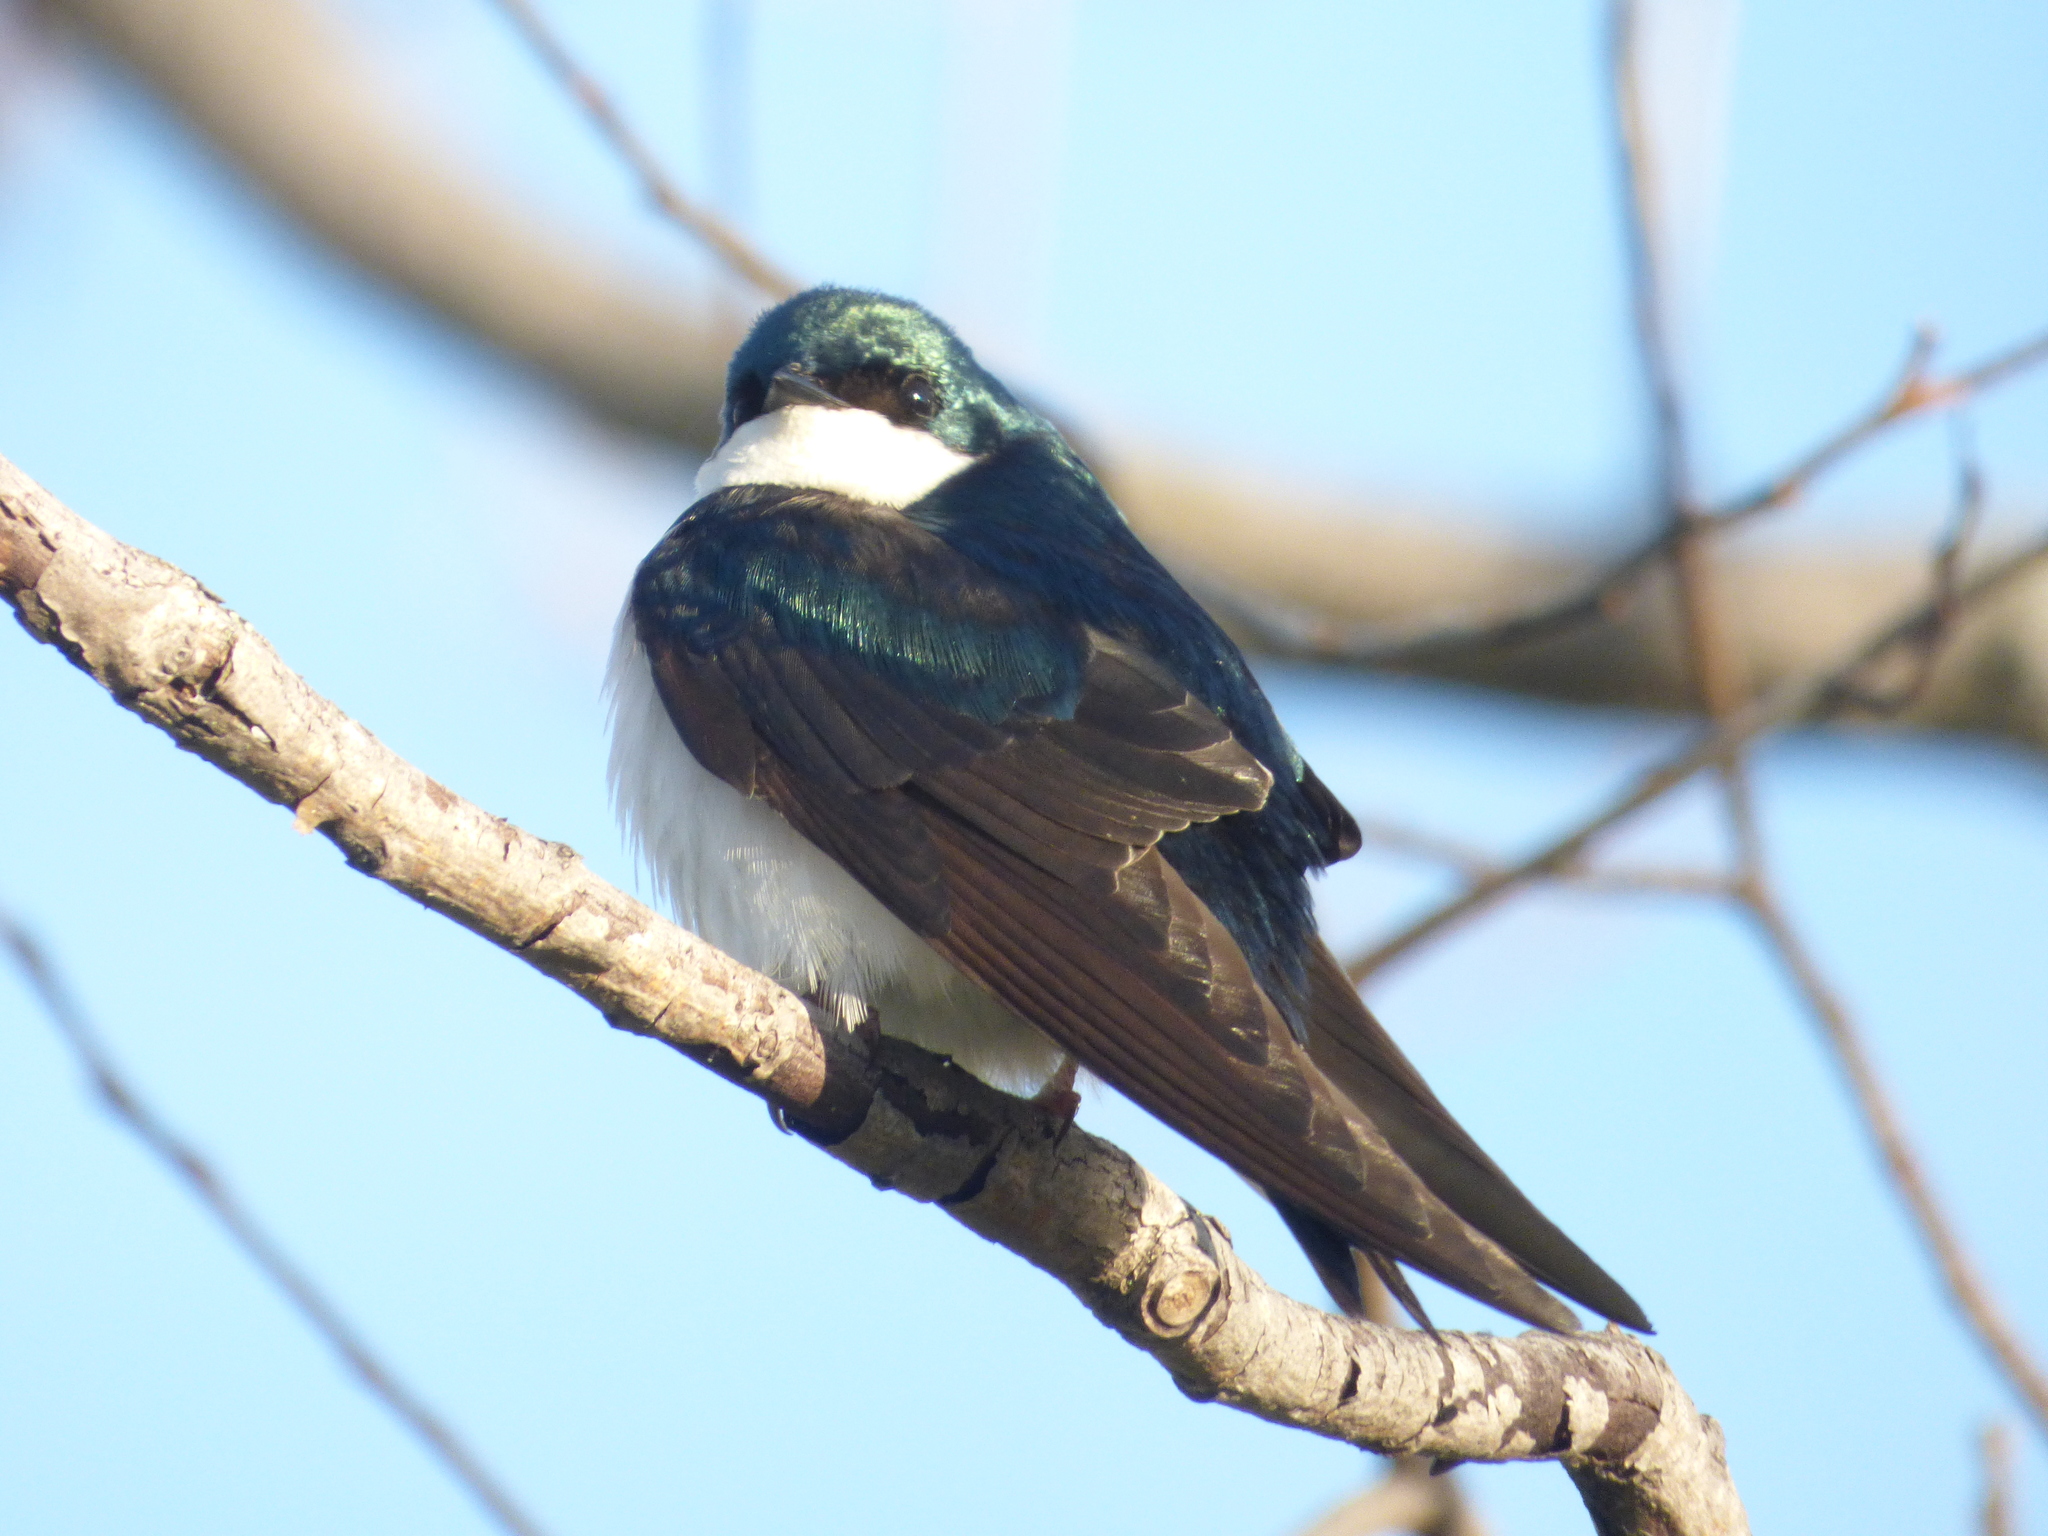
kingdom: Animalia
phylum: Chordata
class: Aves
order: Passeriformes
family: Hirundinidae
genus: Tachycineta
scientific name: Tachycineta bicolor
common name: Tree swallow
